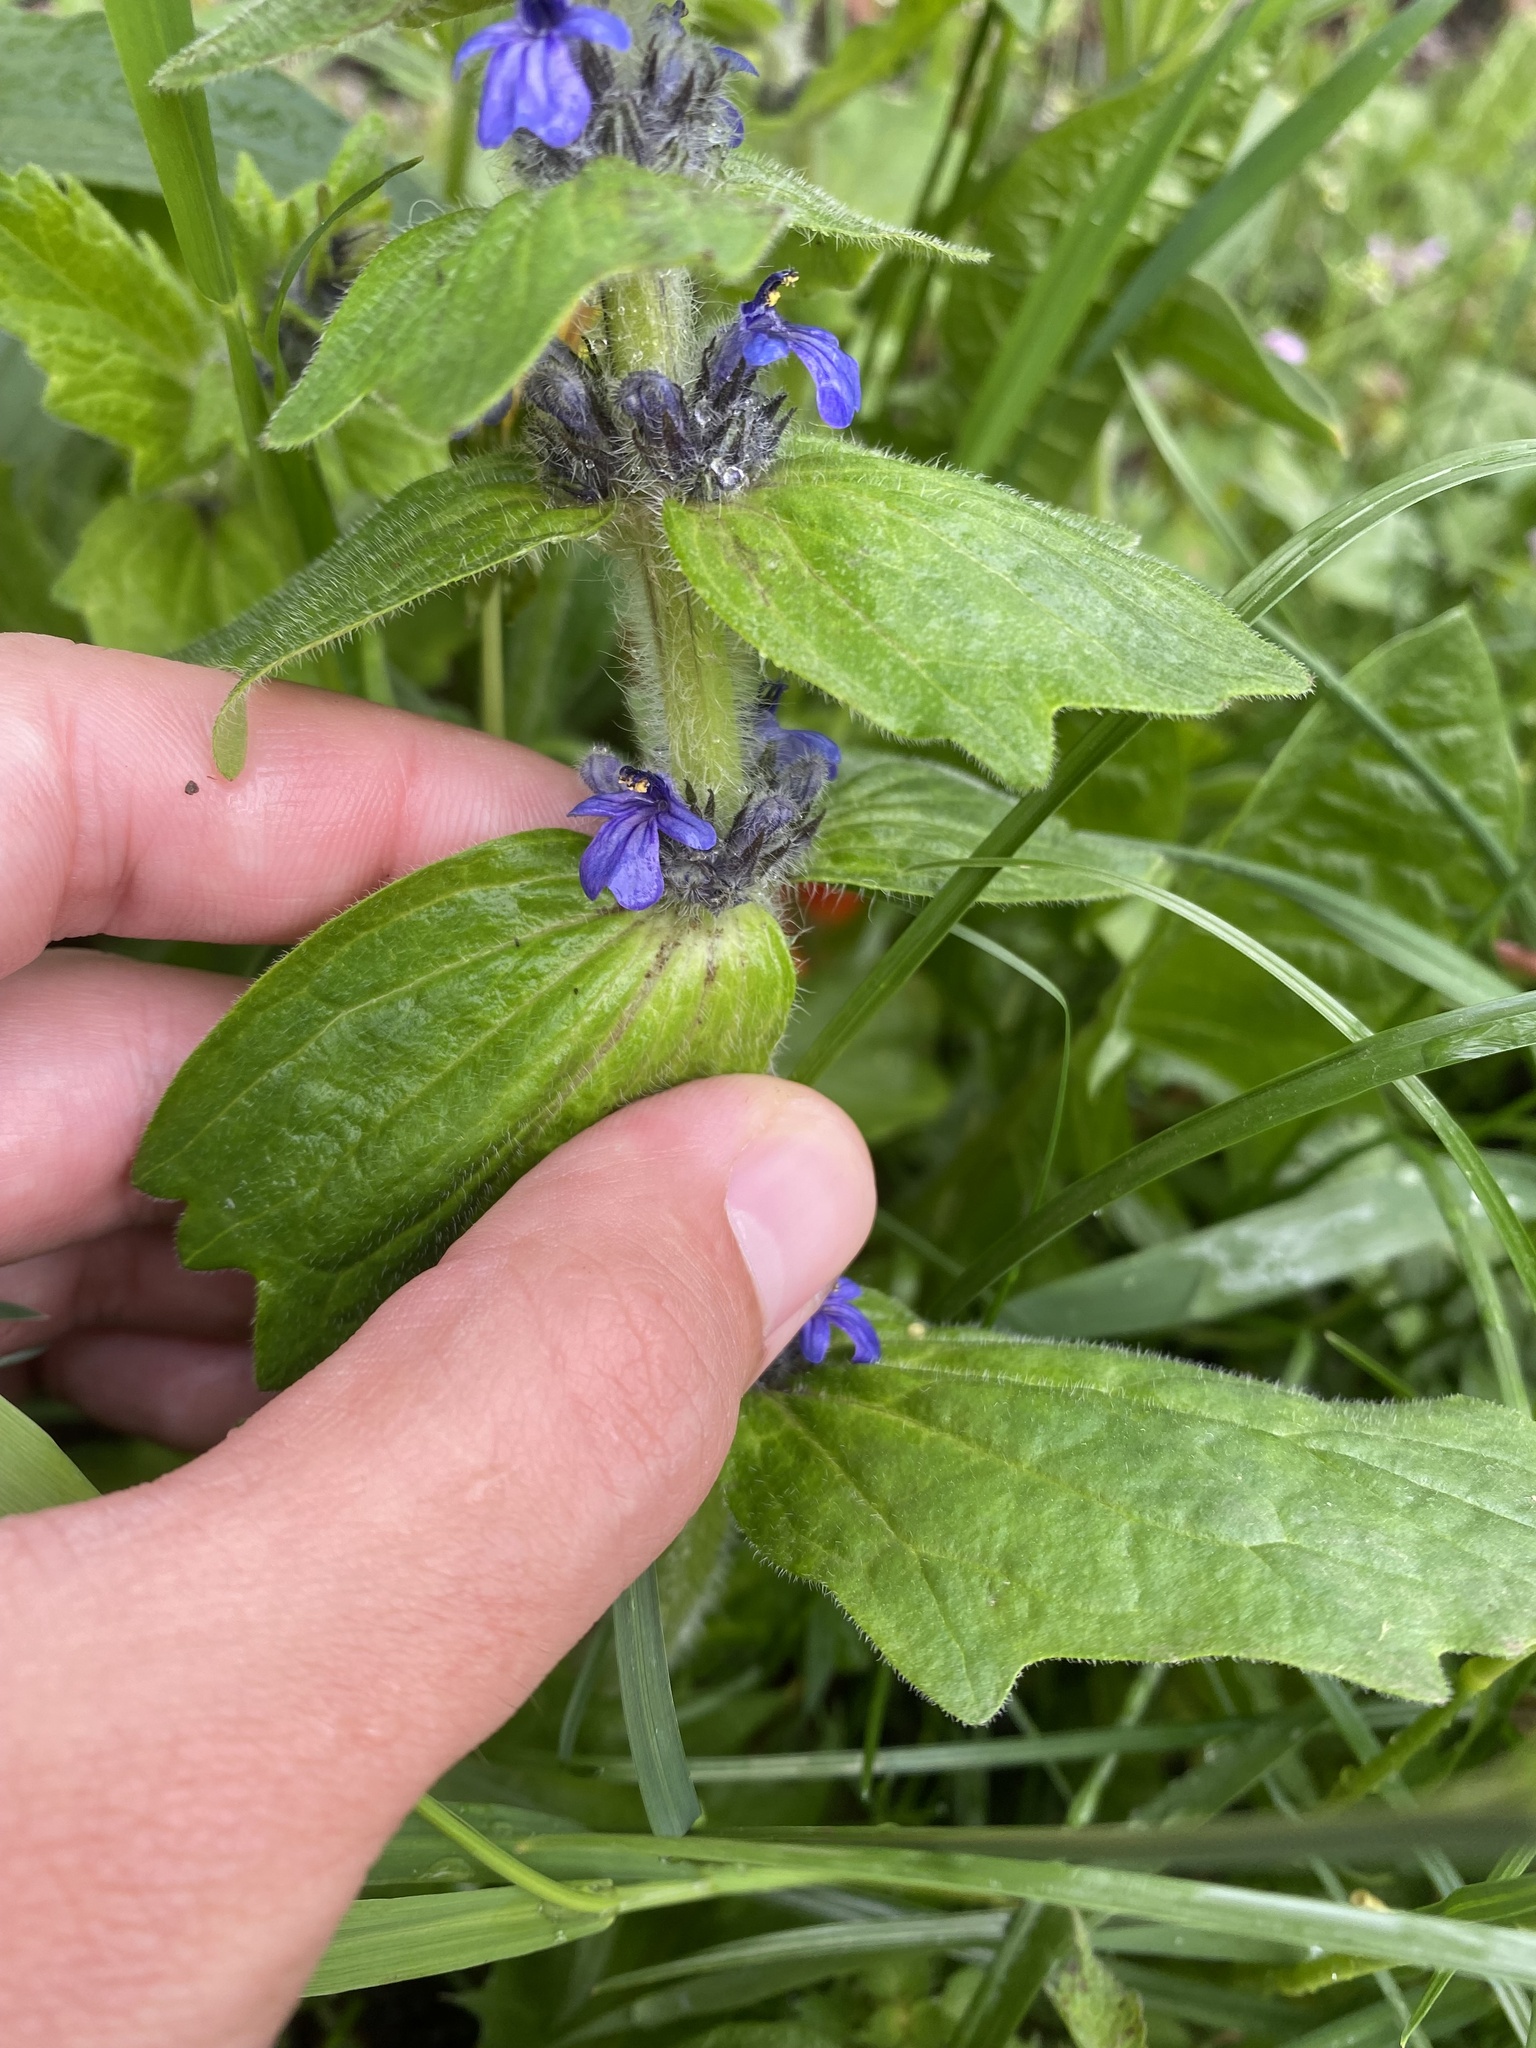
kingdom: Plantae
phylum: Tracheophyta
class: Magnoliopsida
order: Lamiales
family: Lamiaceae
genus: Ajuga
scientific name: Ajuga genevensis
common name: Blue bugle
